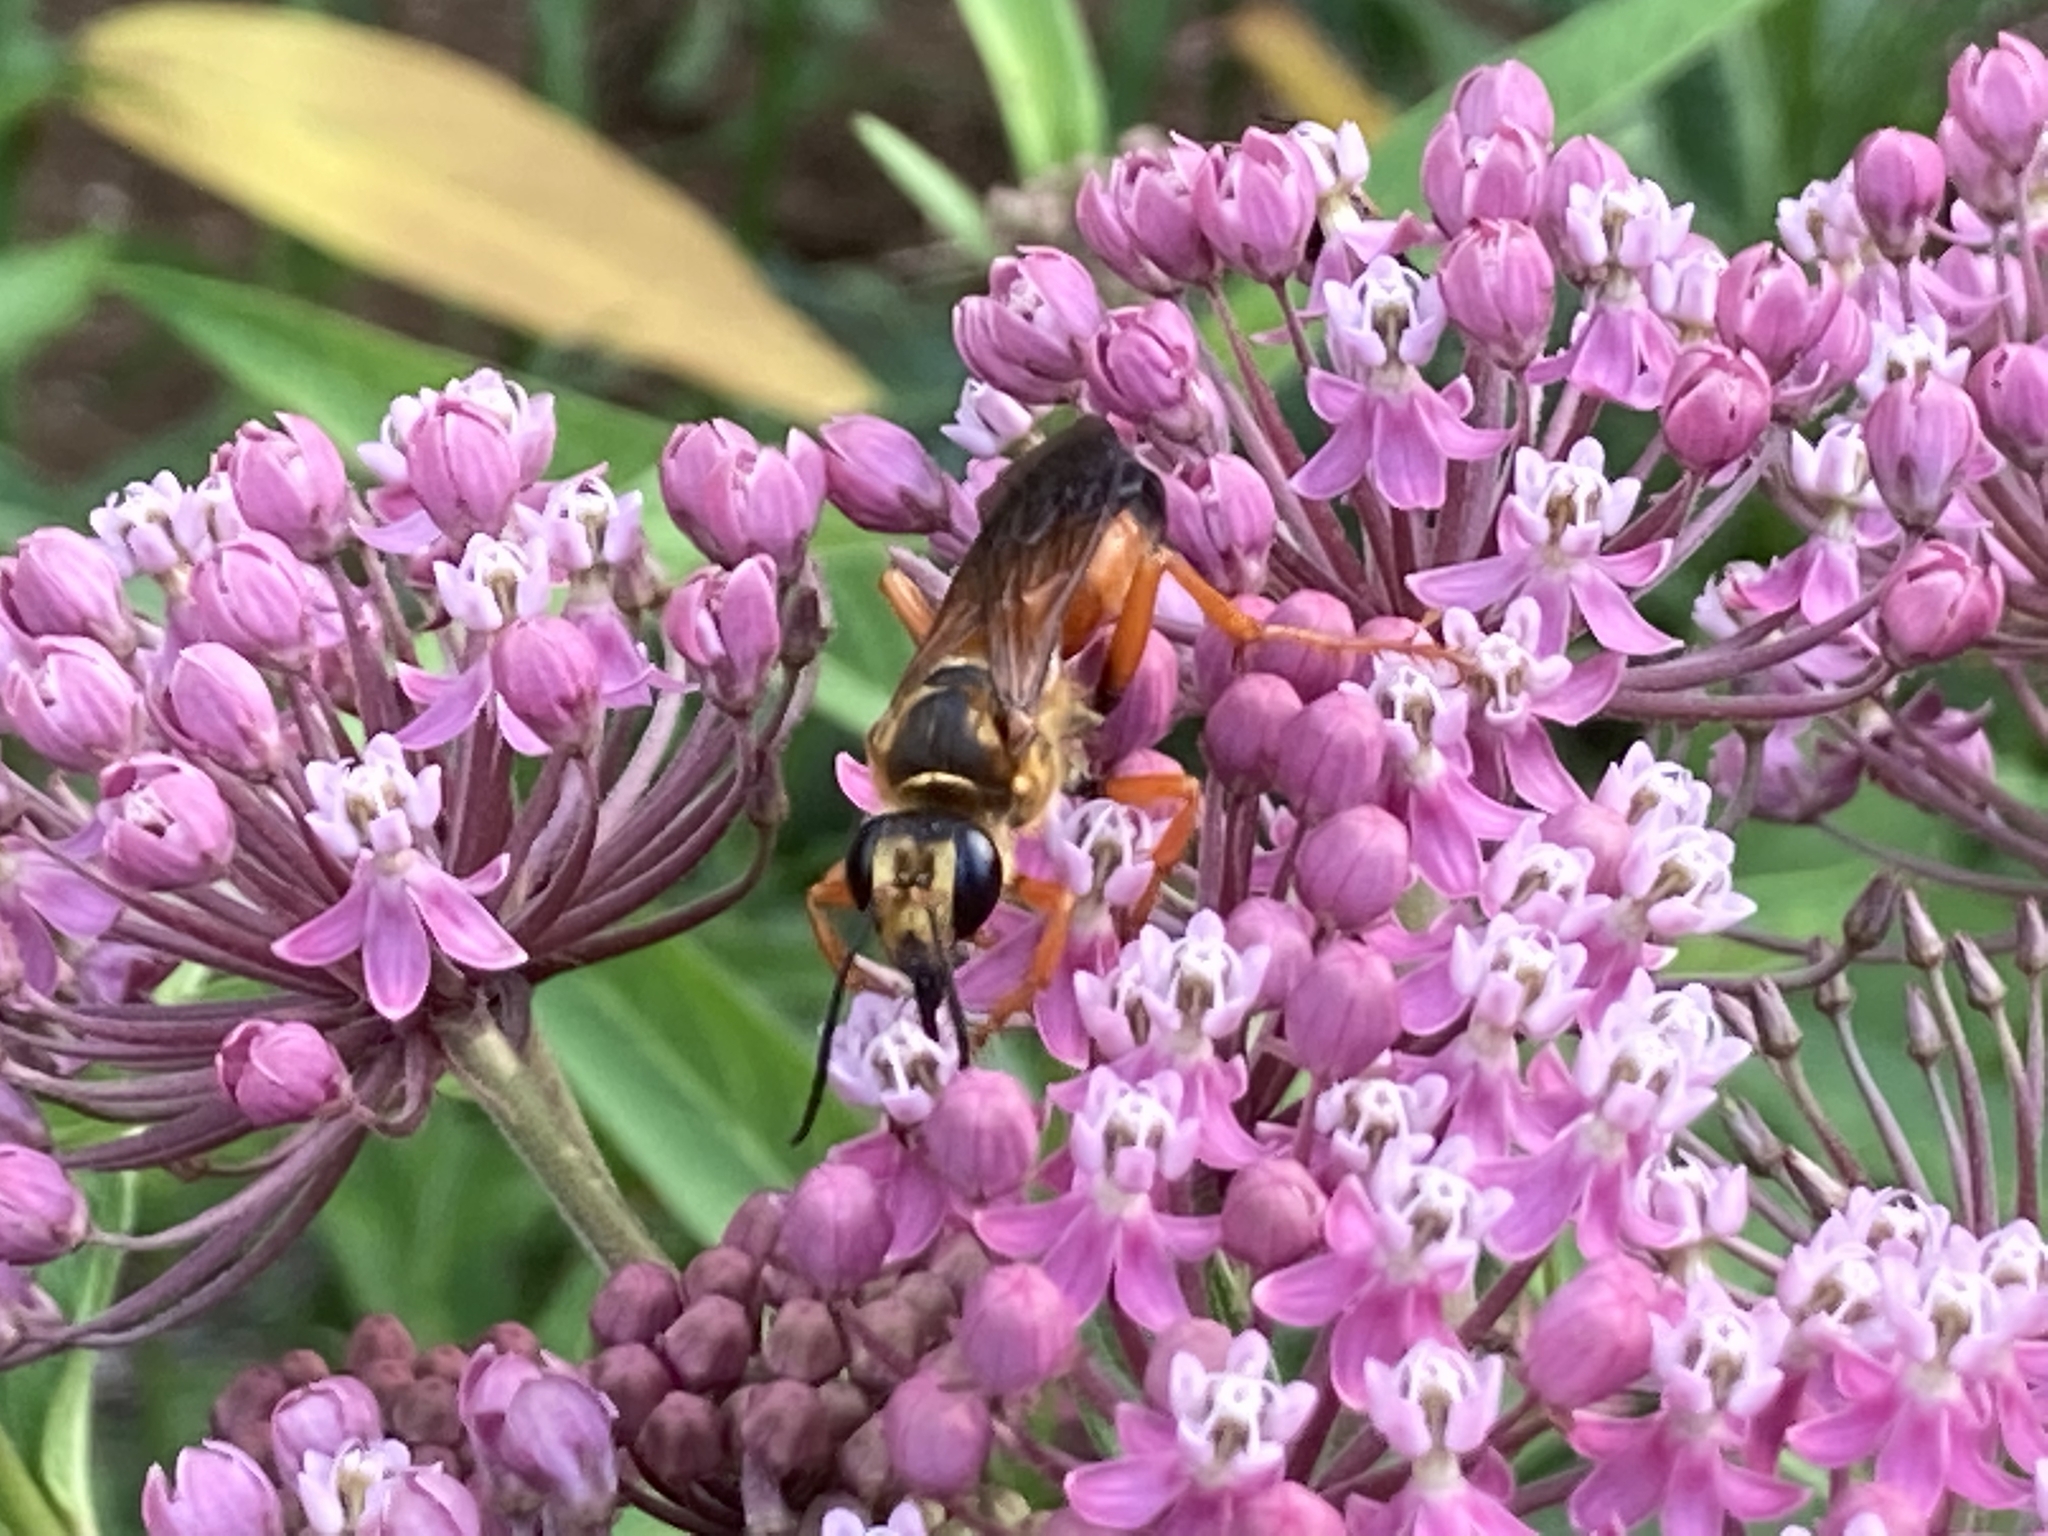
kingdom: Animalia
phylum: Arthropoda
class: Insecta
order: Hymenoptera
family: Sphecidae
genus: Sphex
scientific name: Sphex ichneumoneus
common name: Great golden digger wasp
